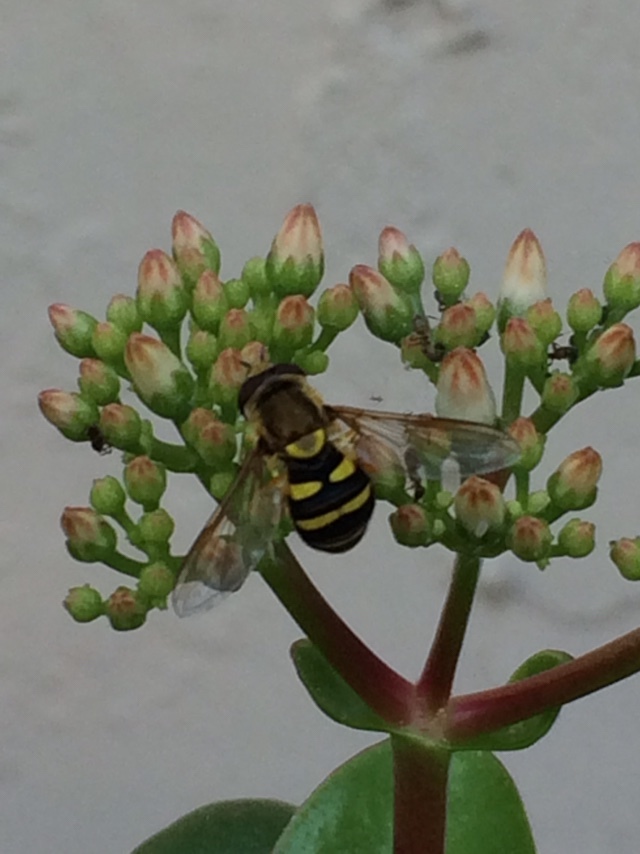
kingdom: Animalia
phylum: Arthropoda
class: Insecta
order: Diptera
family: Syrphidae
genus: Syrphus
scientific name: Syrphus opinator
